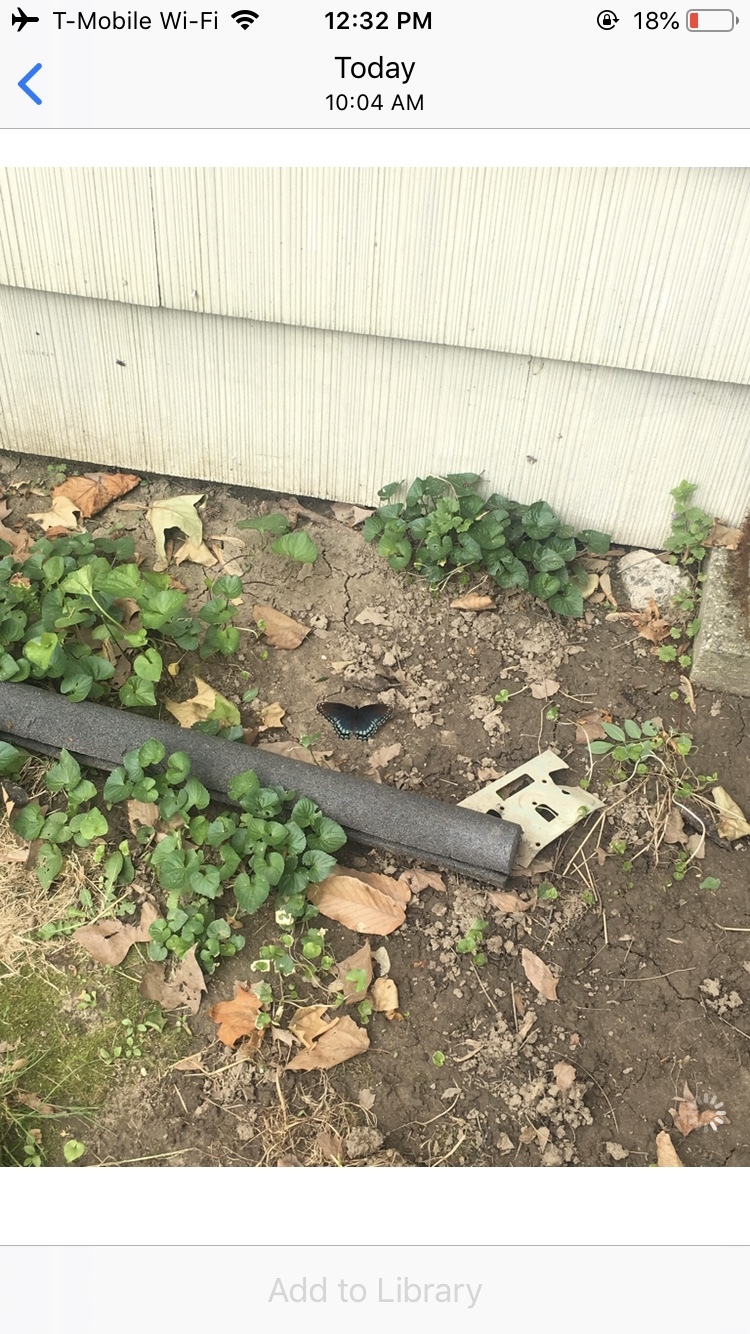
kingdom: Animalia
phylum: Arthropoda
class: Insecta
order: Lepidoptera
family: Nymphalidae
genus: Limenitis
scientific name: Limenitis astyanax
